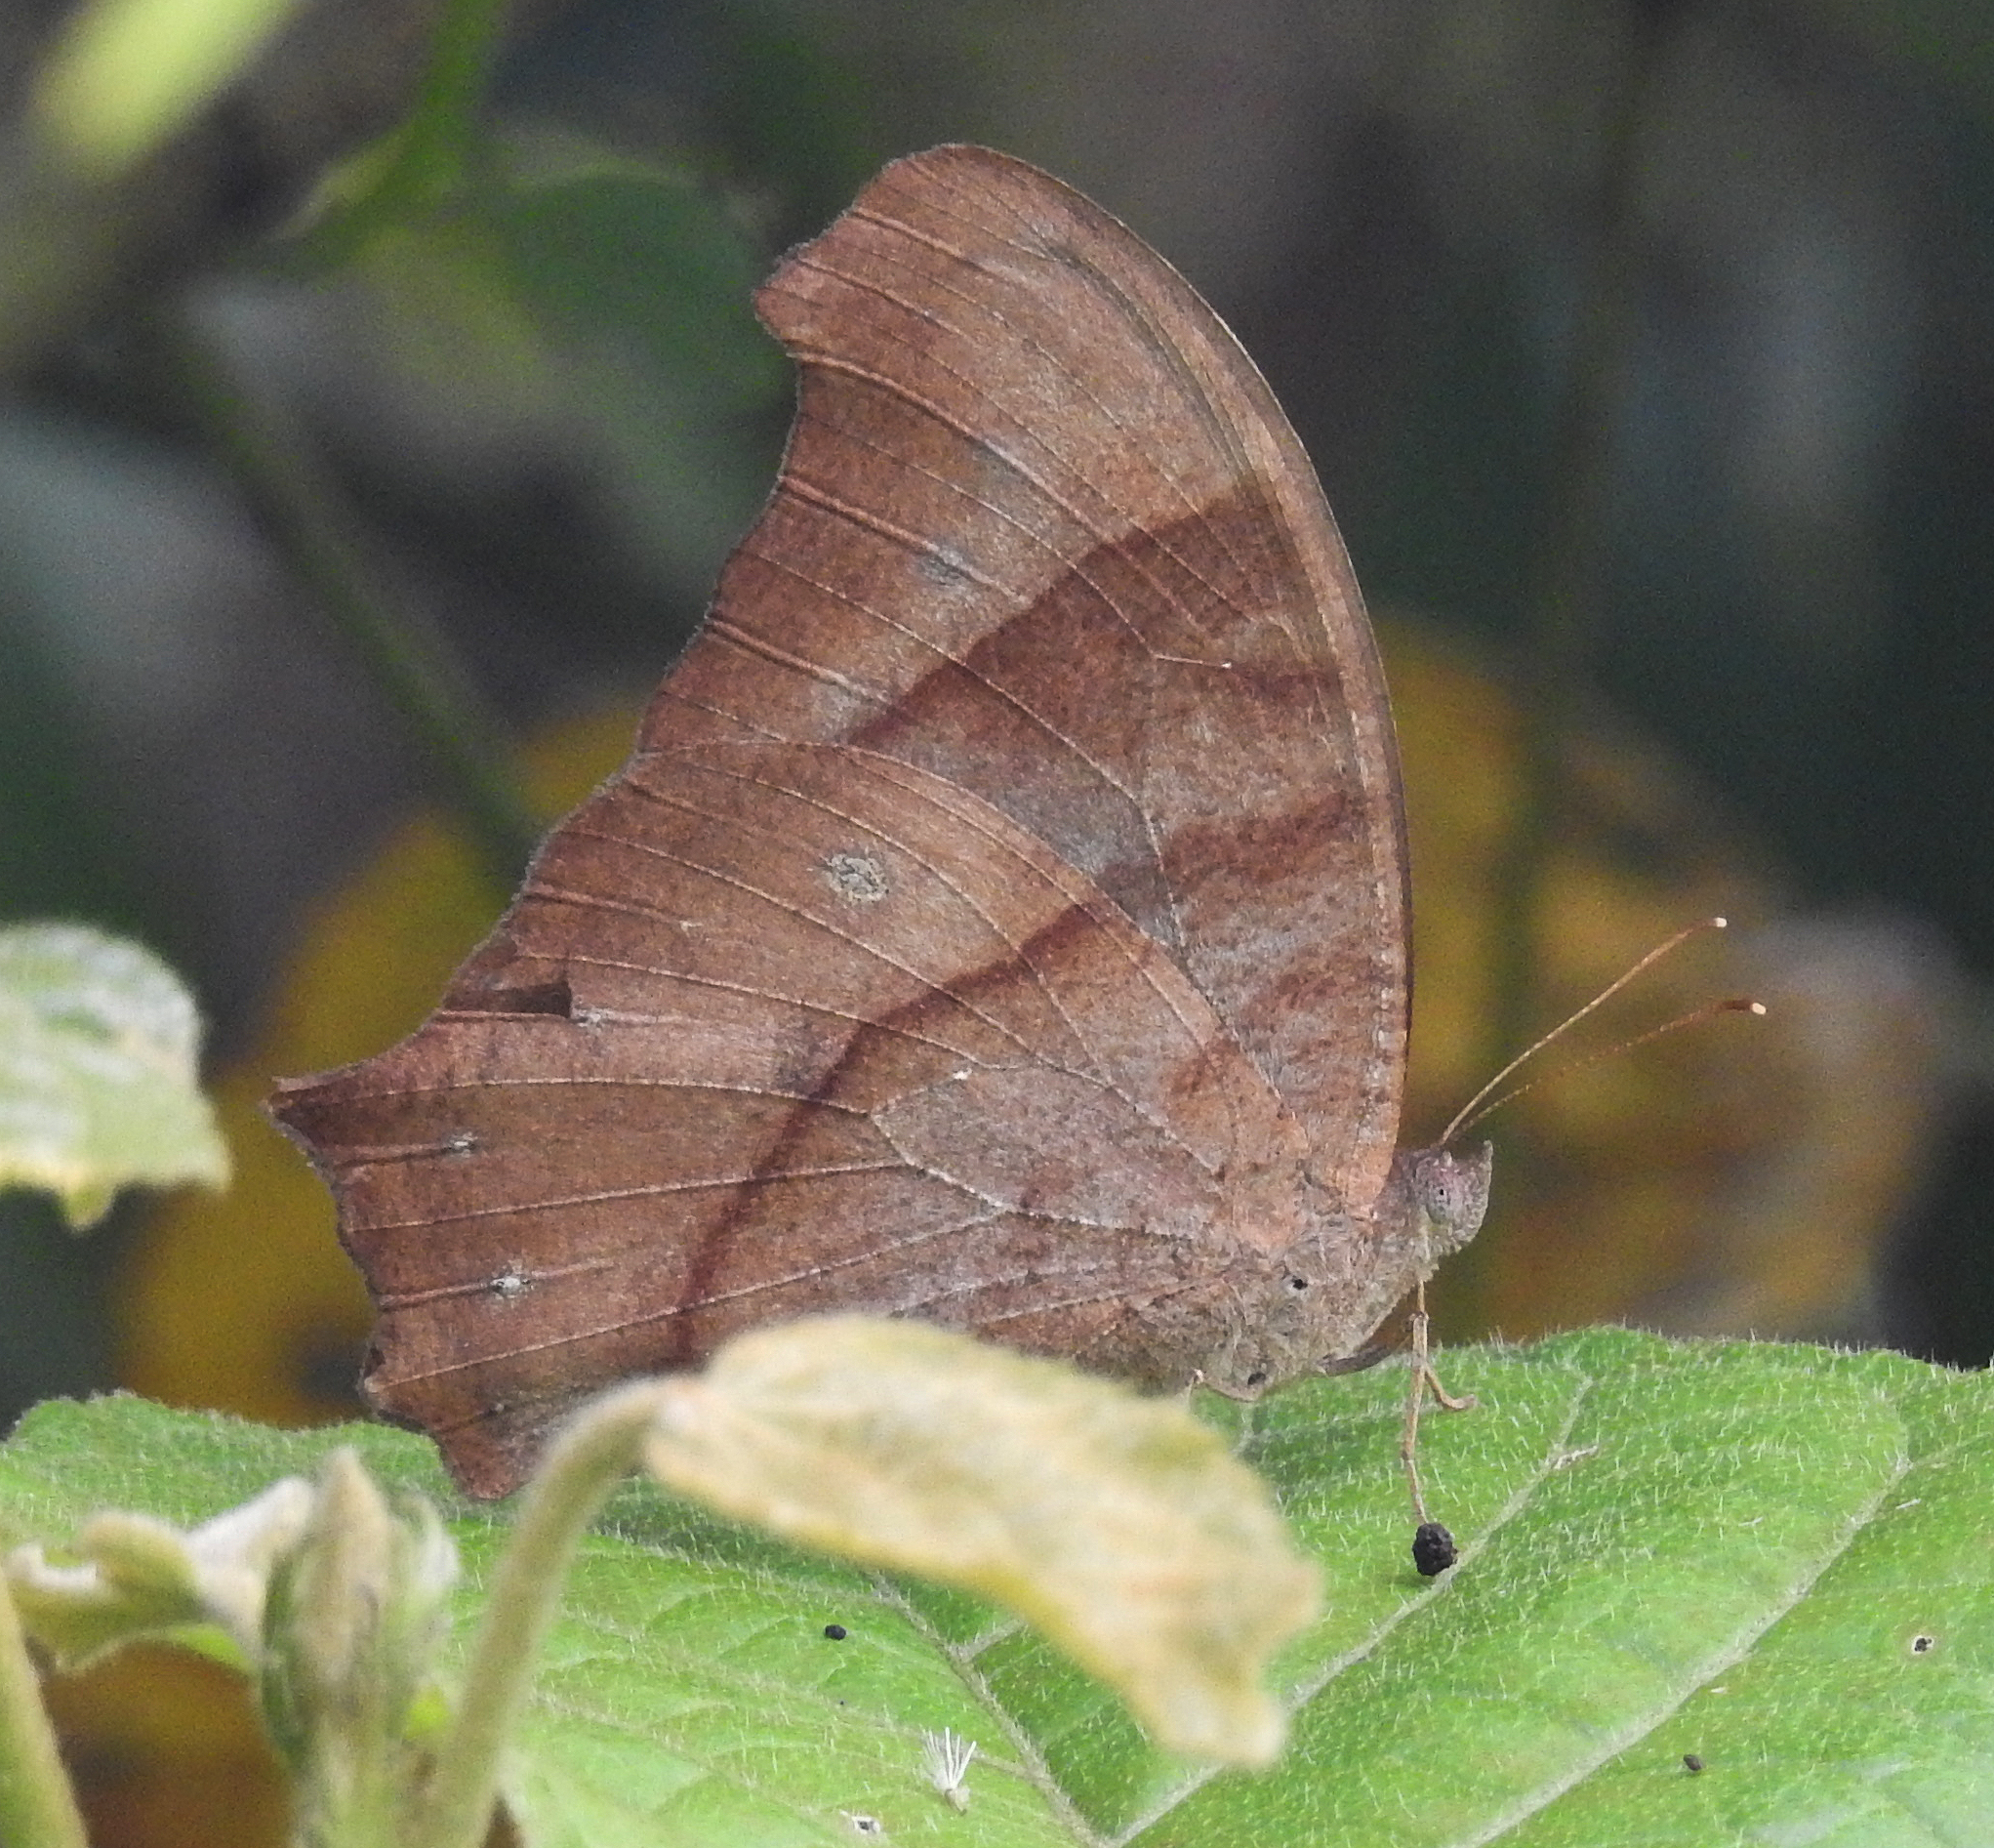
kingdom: Animalia
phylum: Arthropoda
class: Insecta
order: Lepidoptera
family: Nymphalidae
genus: Melanitis
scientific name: Melanitis leda
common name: Twilight brown
